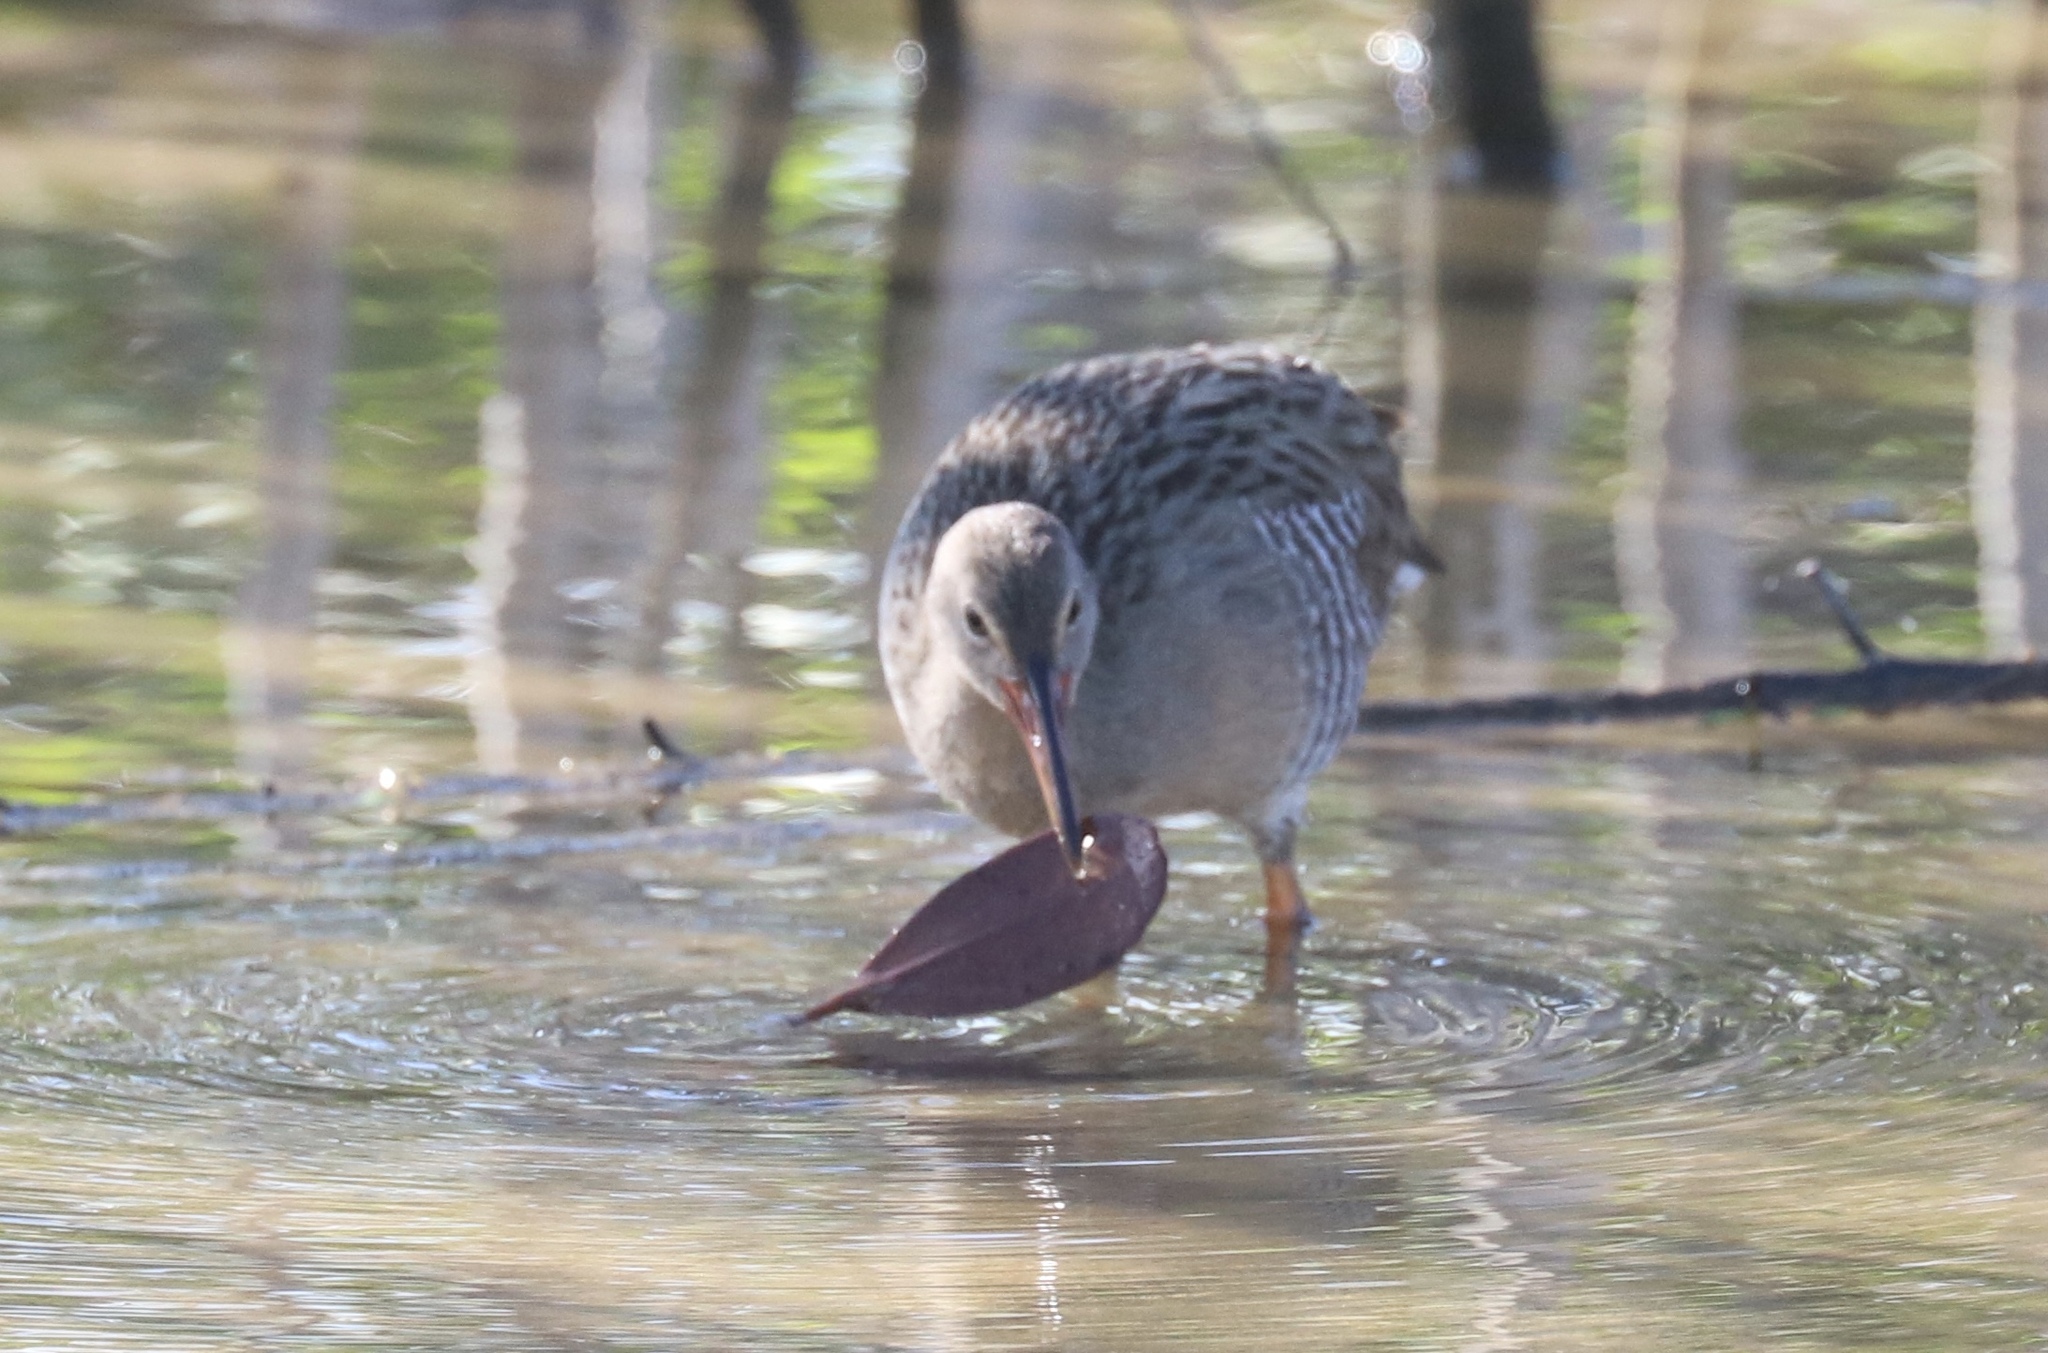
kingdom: Animalia
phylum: Chordata
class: Aves
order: Gruiformes
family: Rallidae
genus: Rallus
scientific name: Rallus longirostris
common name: Mangrove rail
